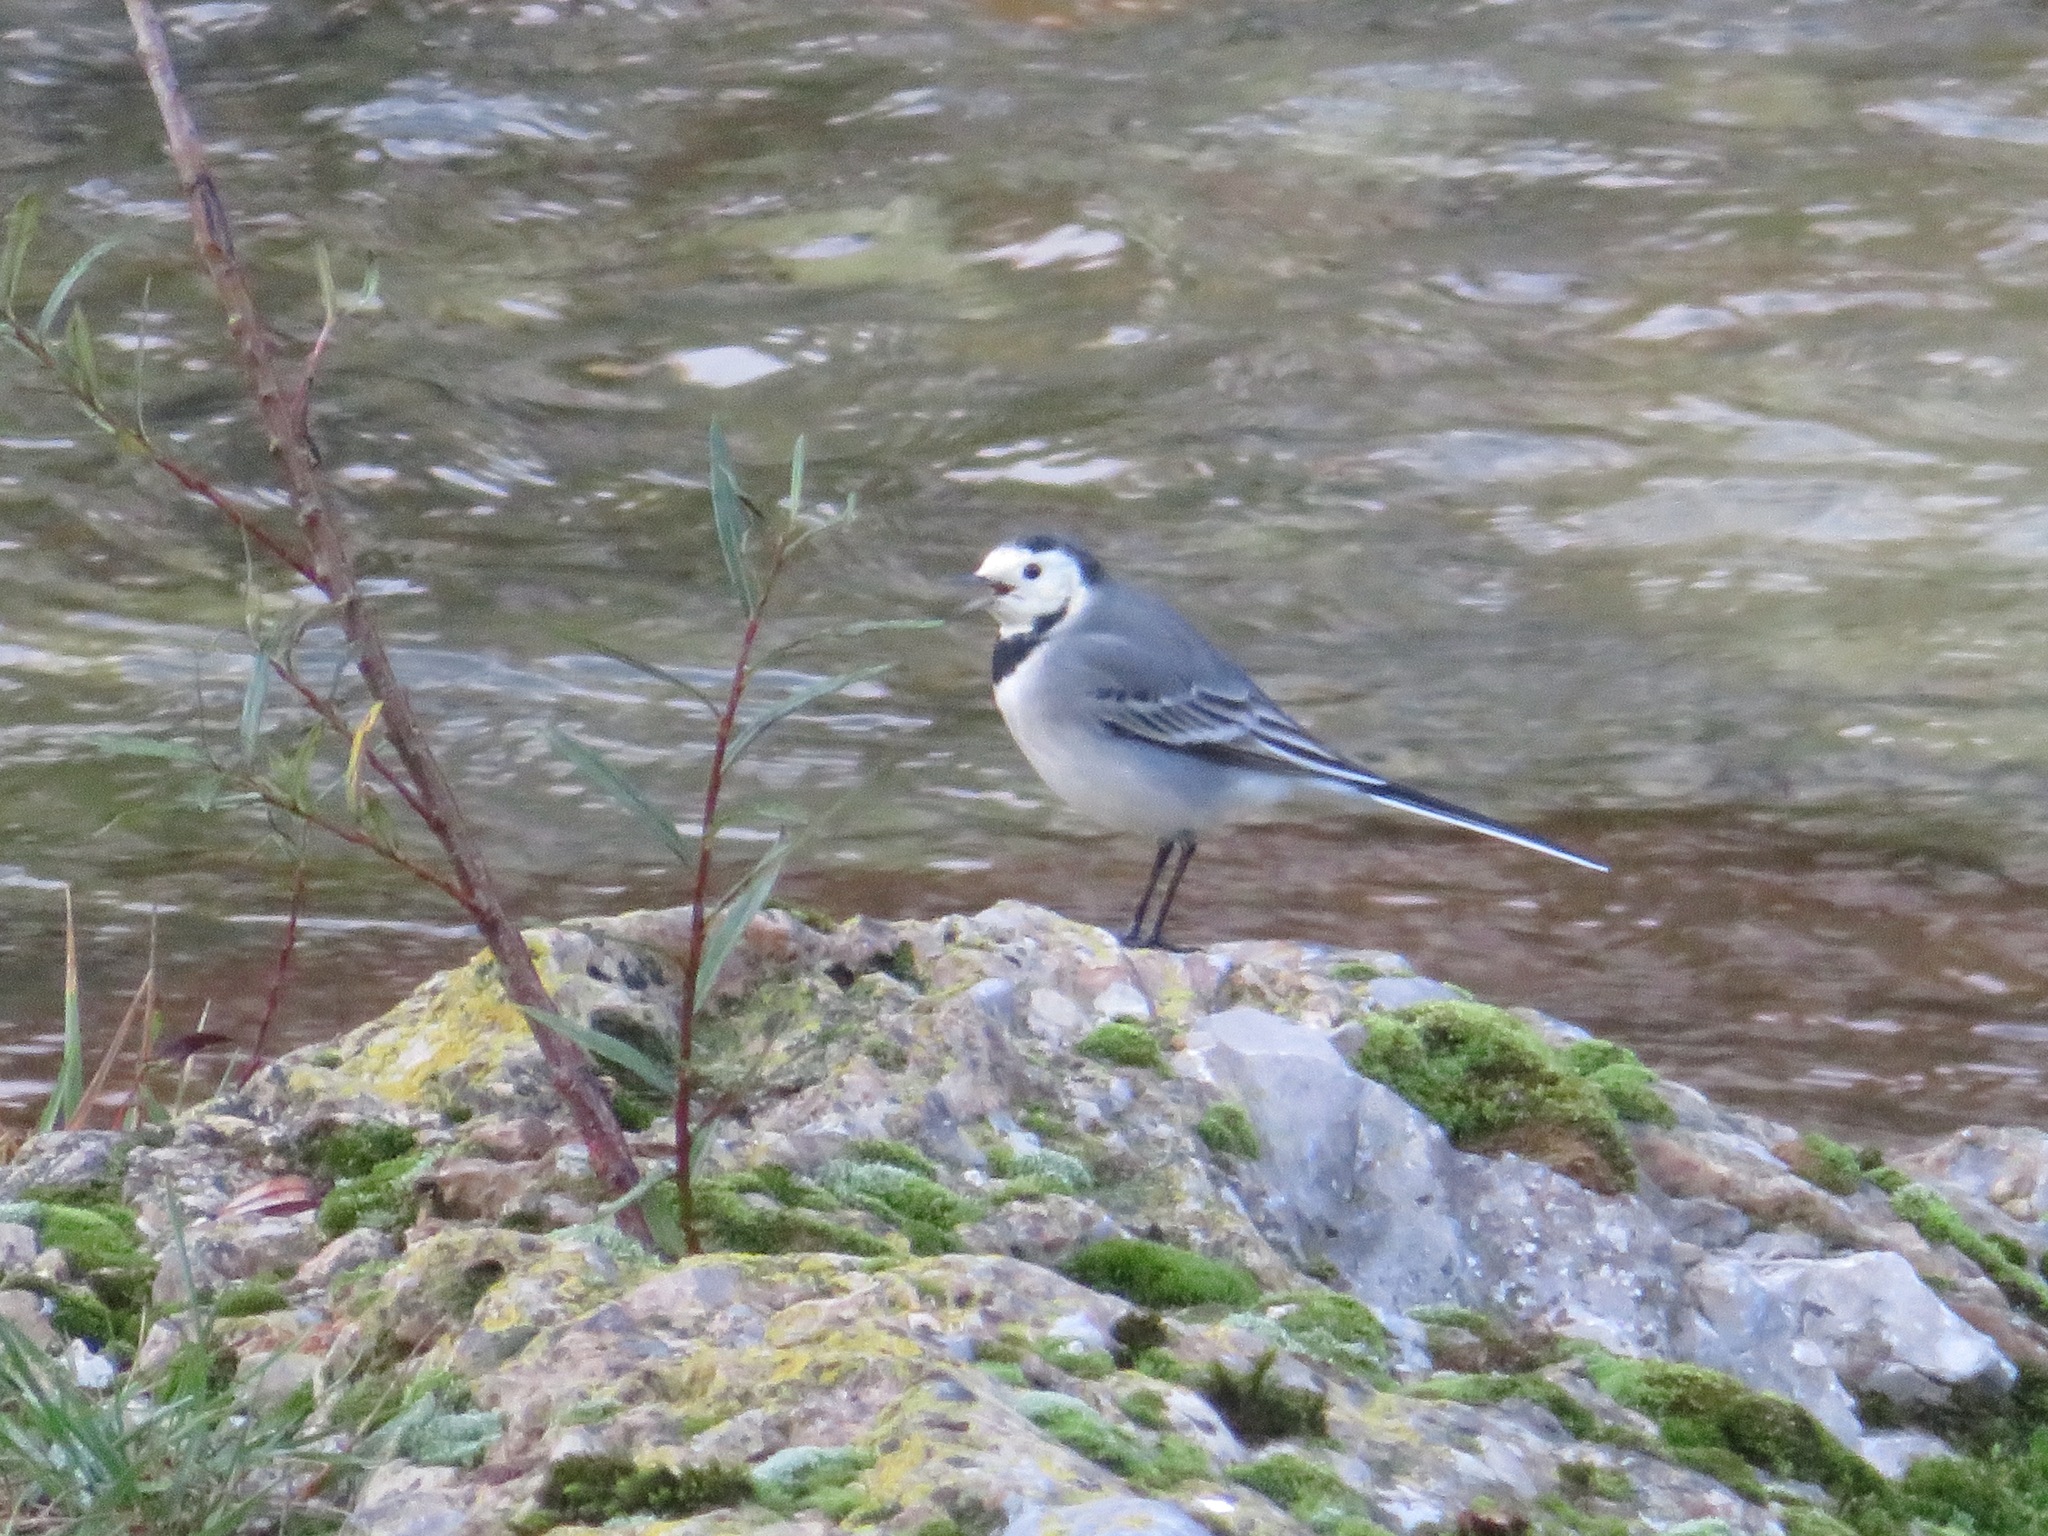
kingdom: Animalia
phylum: Chordata
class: Aves
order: Passeriformes
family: Motacillidae
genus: Motacilla
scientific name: Motacilla alba
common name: White wagtail
